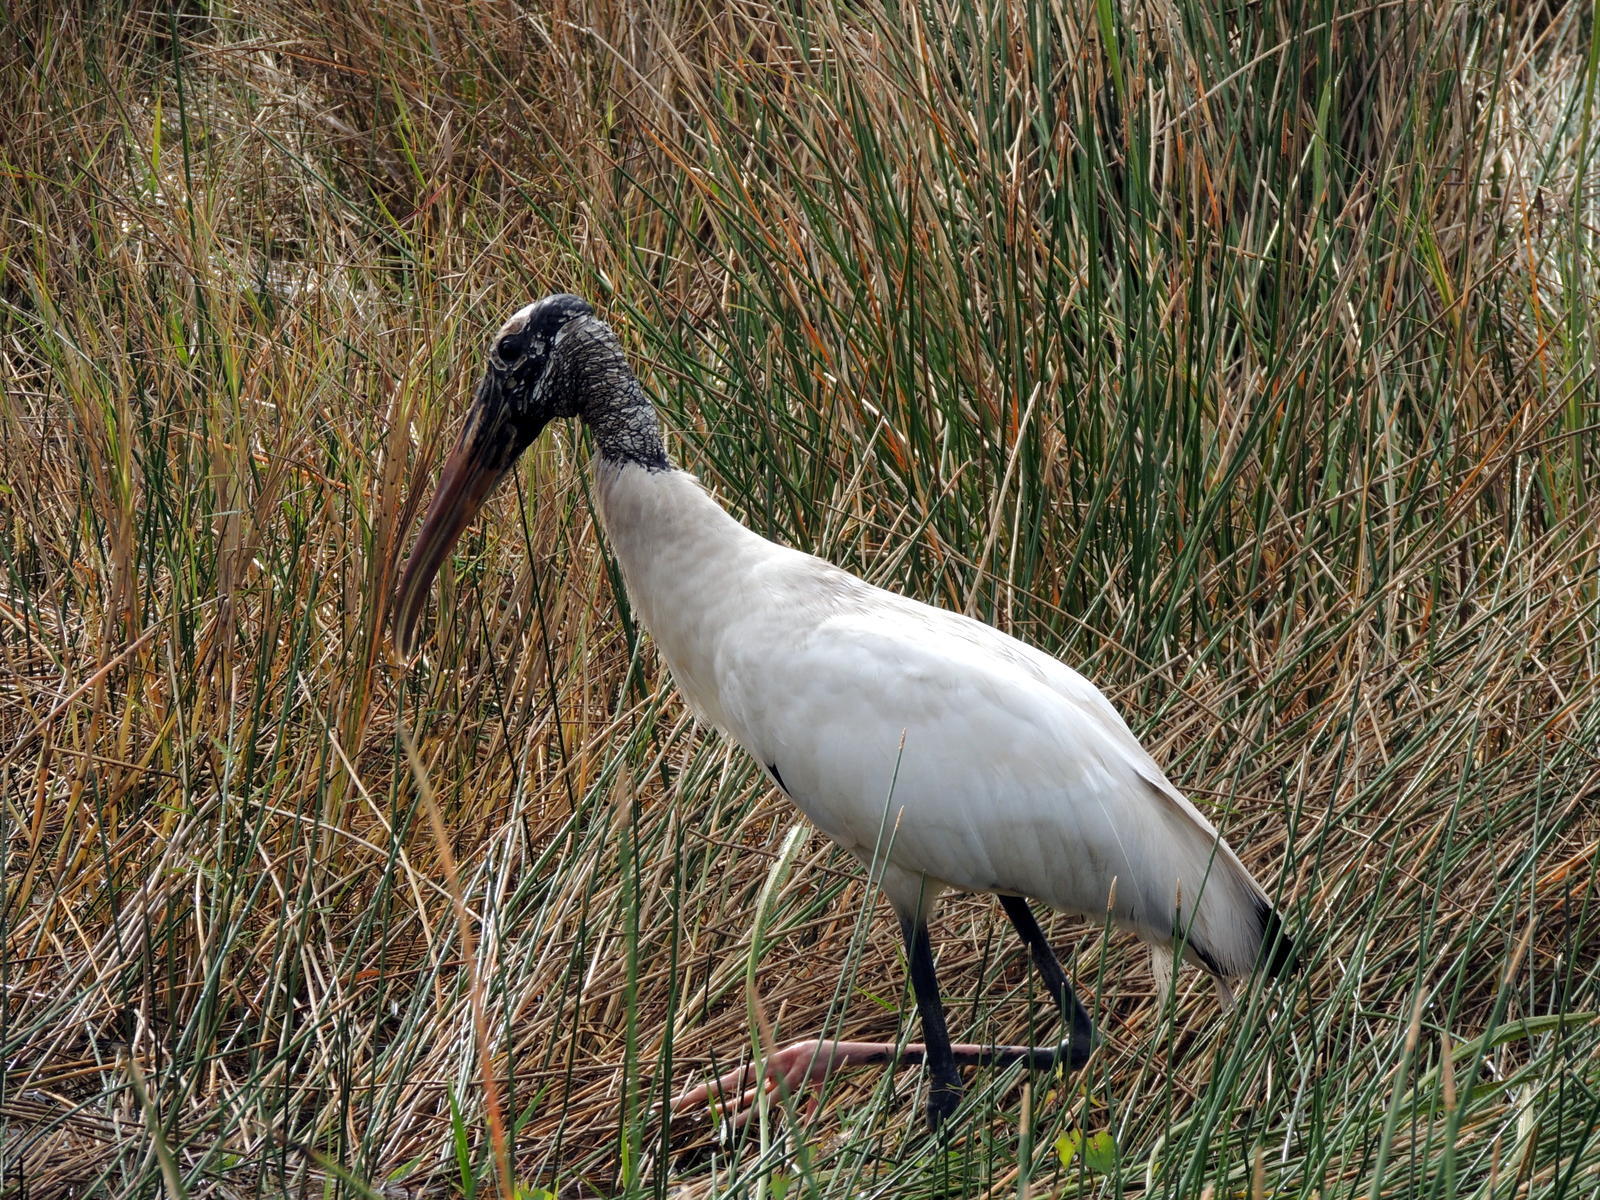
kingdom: Animalia
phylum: Chordata
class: Aves
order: Ciconiiformes
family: Ciconiidae
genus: Mycteria
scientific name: Mycteria americana
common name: Wood stork
